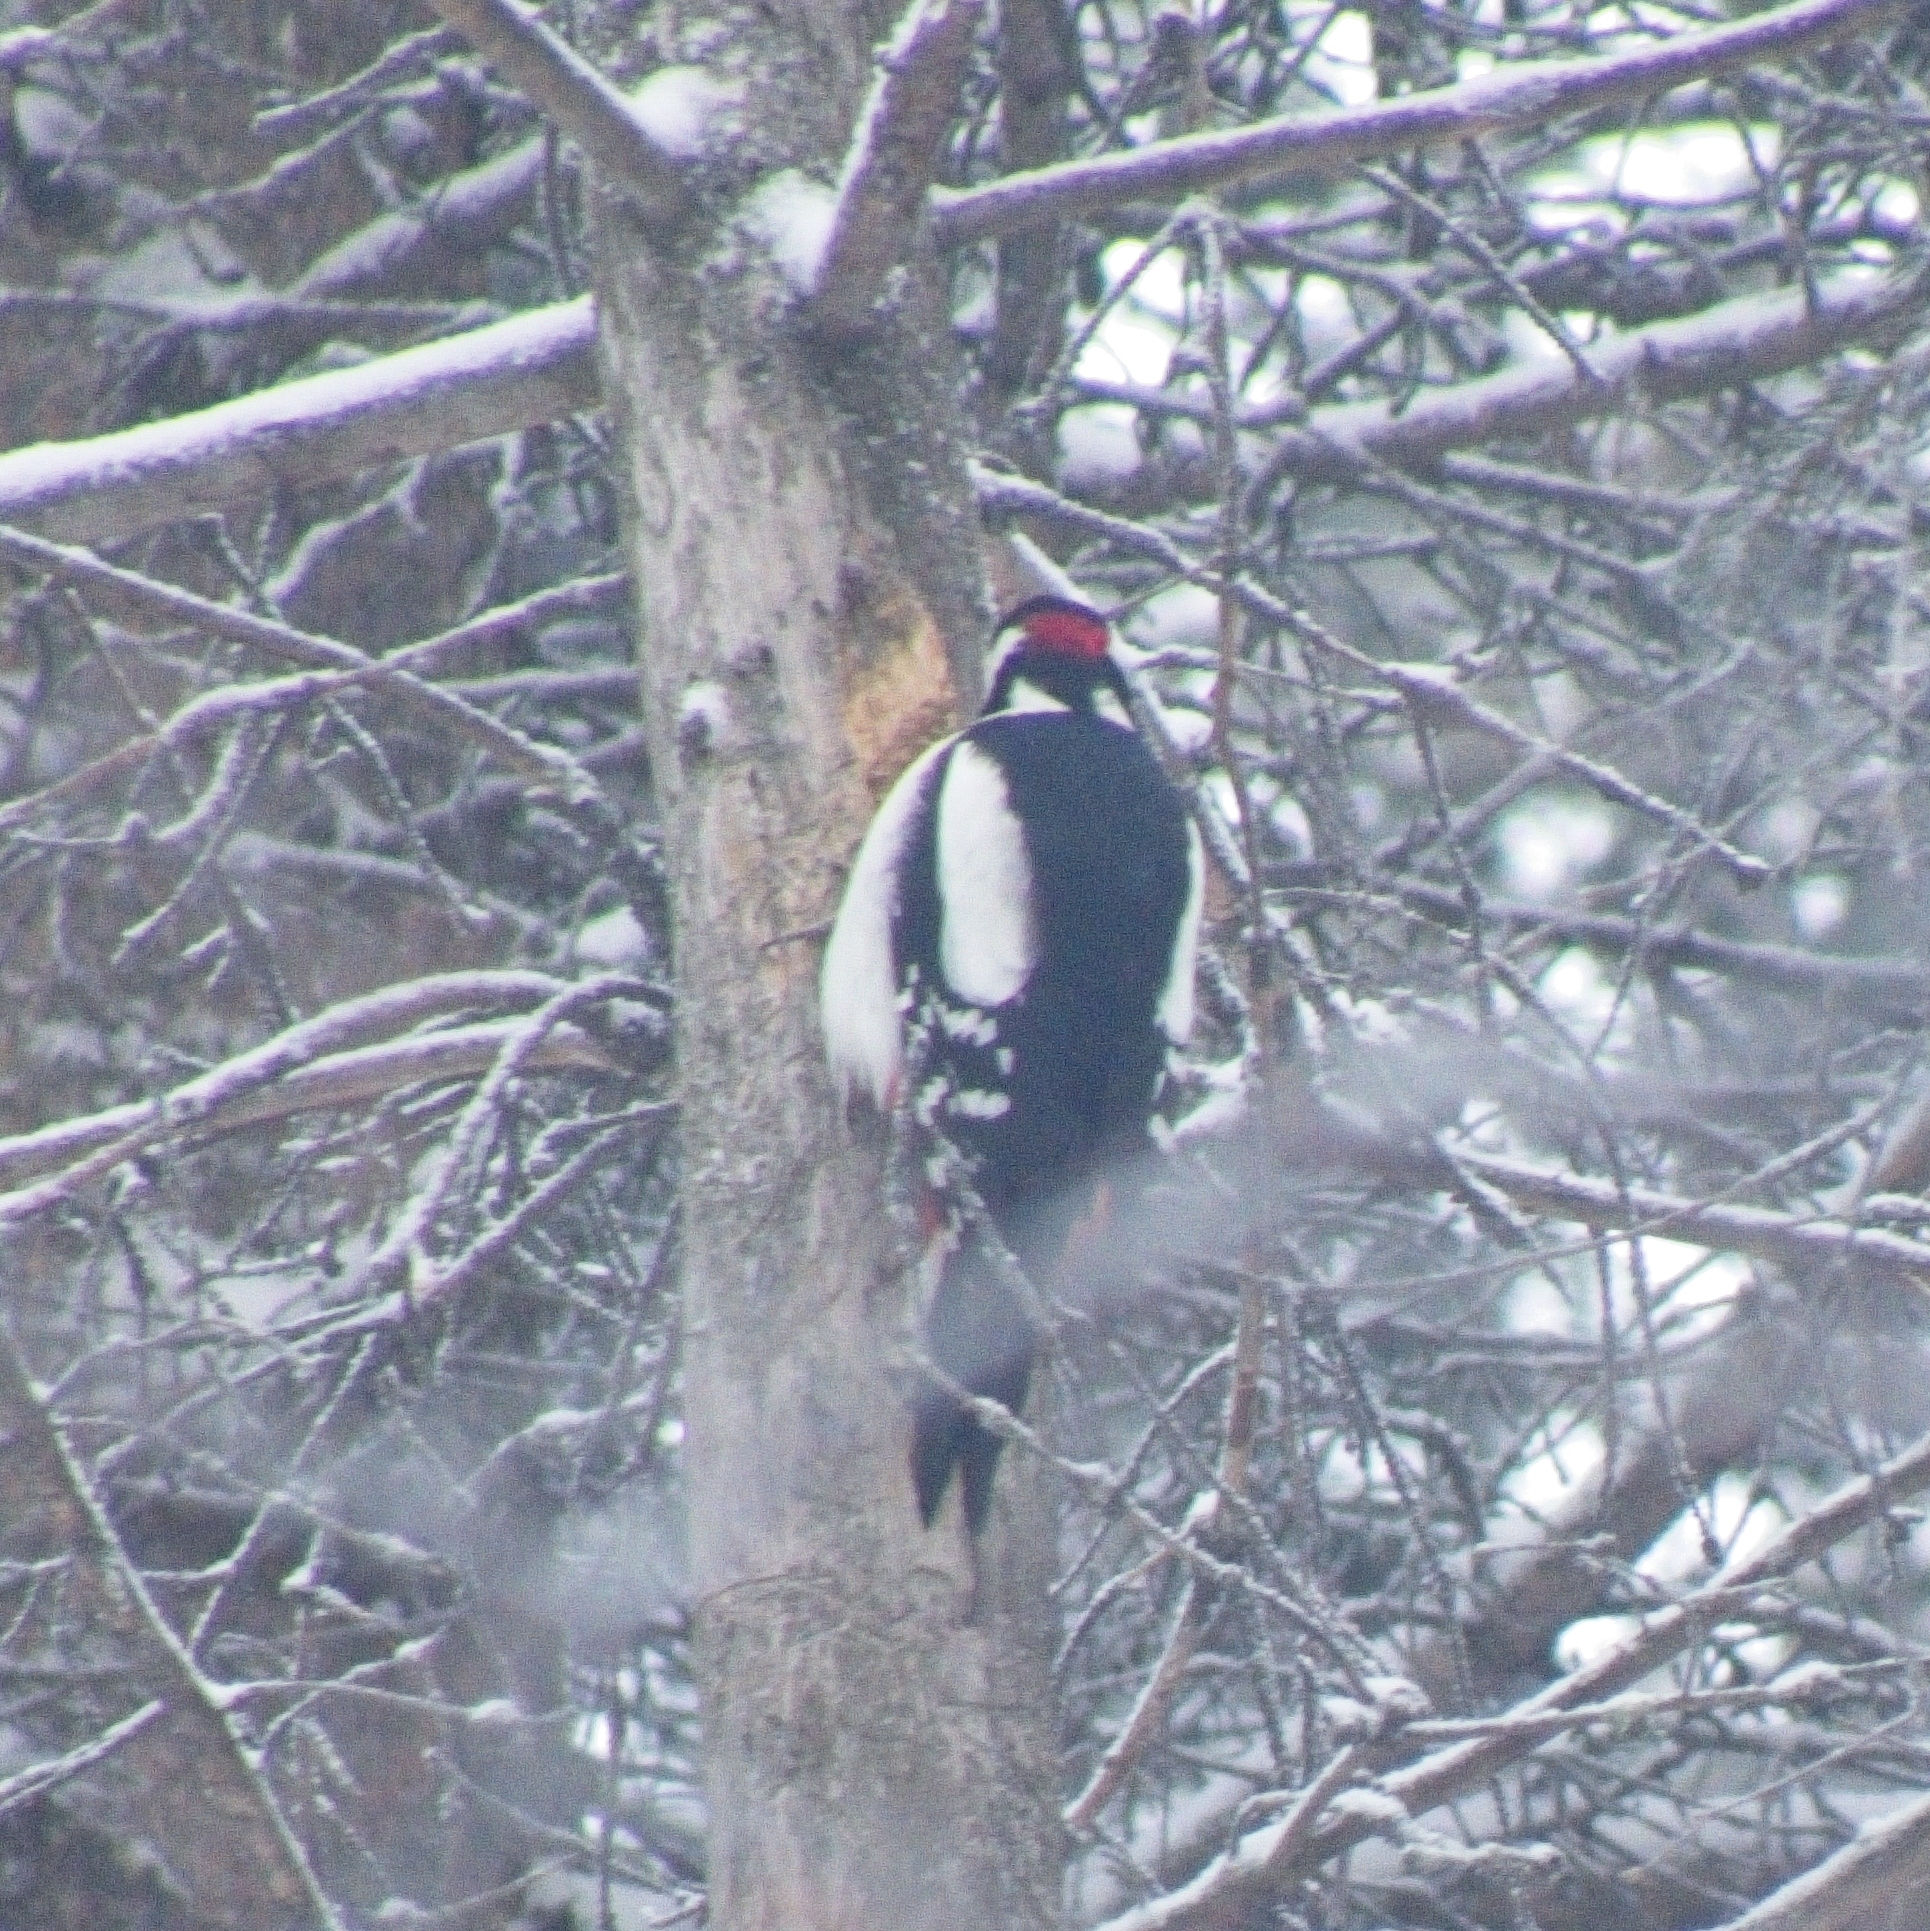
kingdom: Animalia
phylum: Chordata
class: Aves
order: Piciformes
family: Picidae
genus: Dendrocopos
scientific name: Dendrocopos major
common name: Great spotted woodpecker
